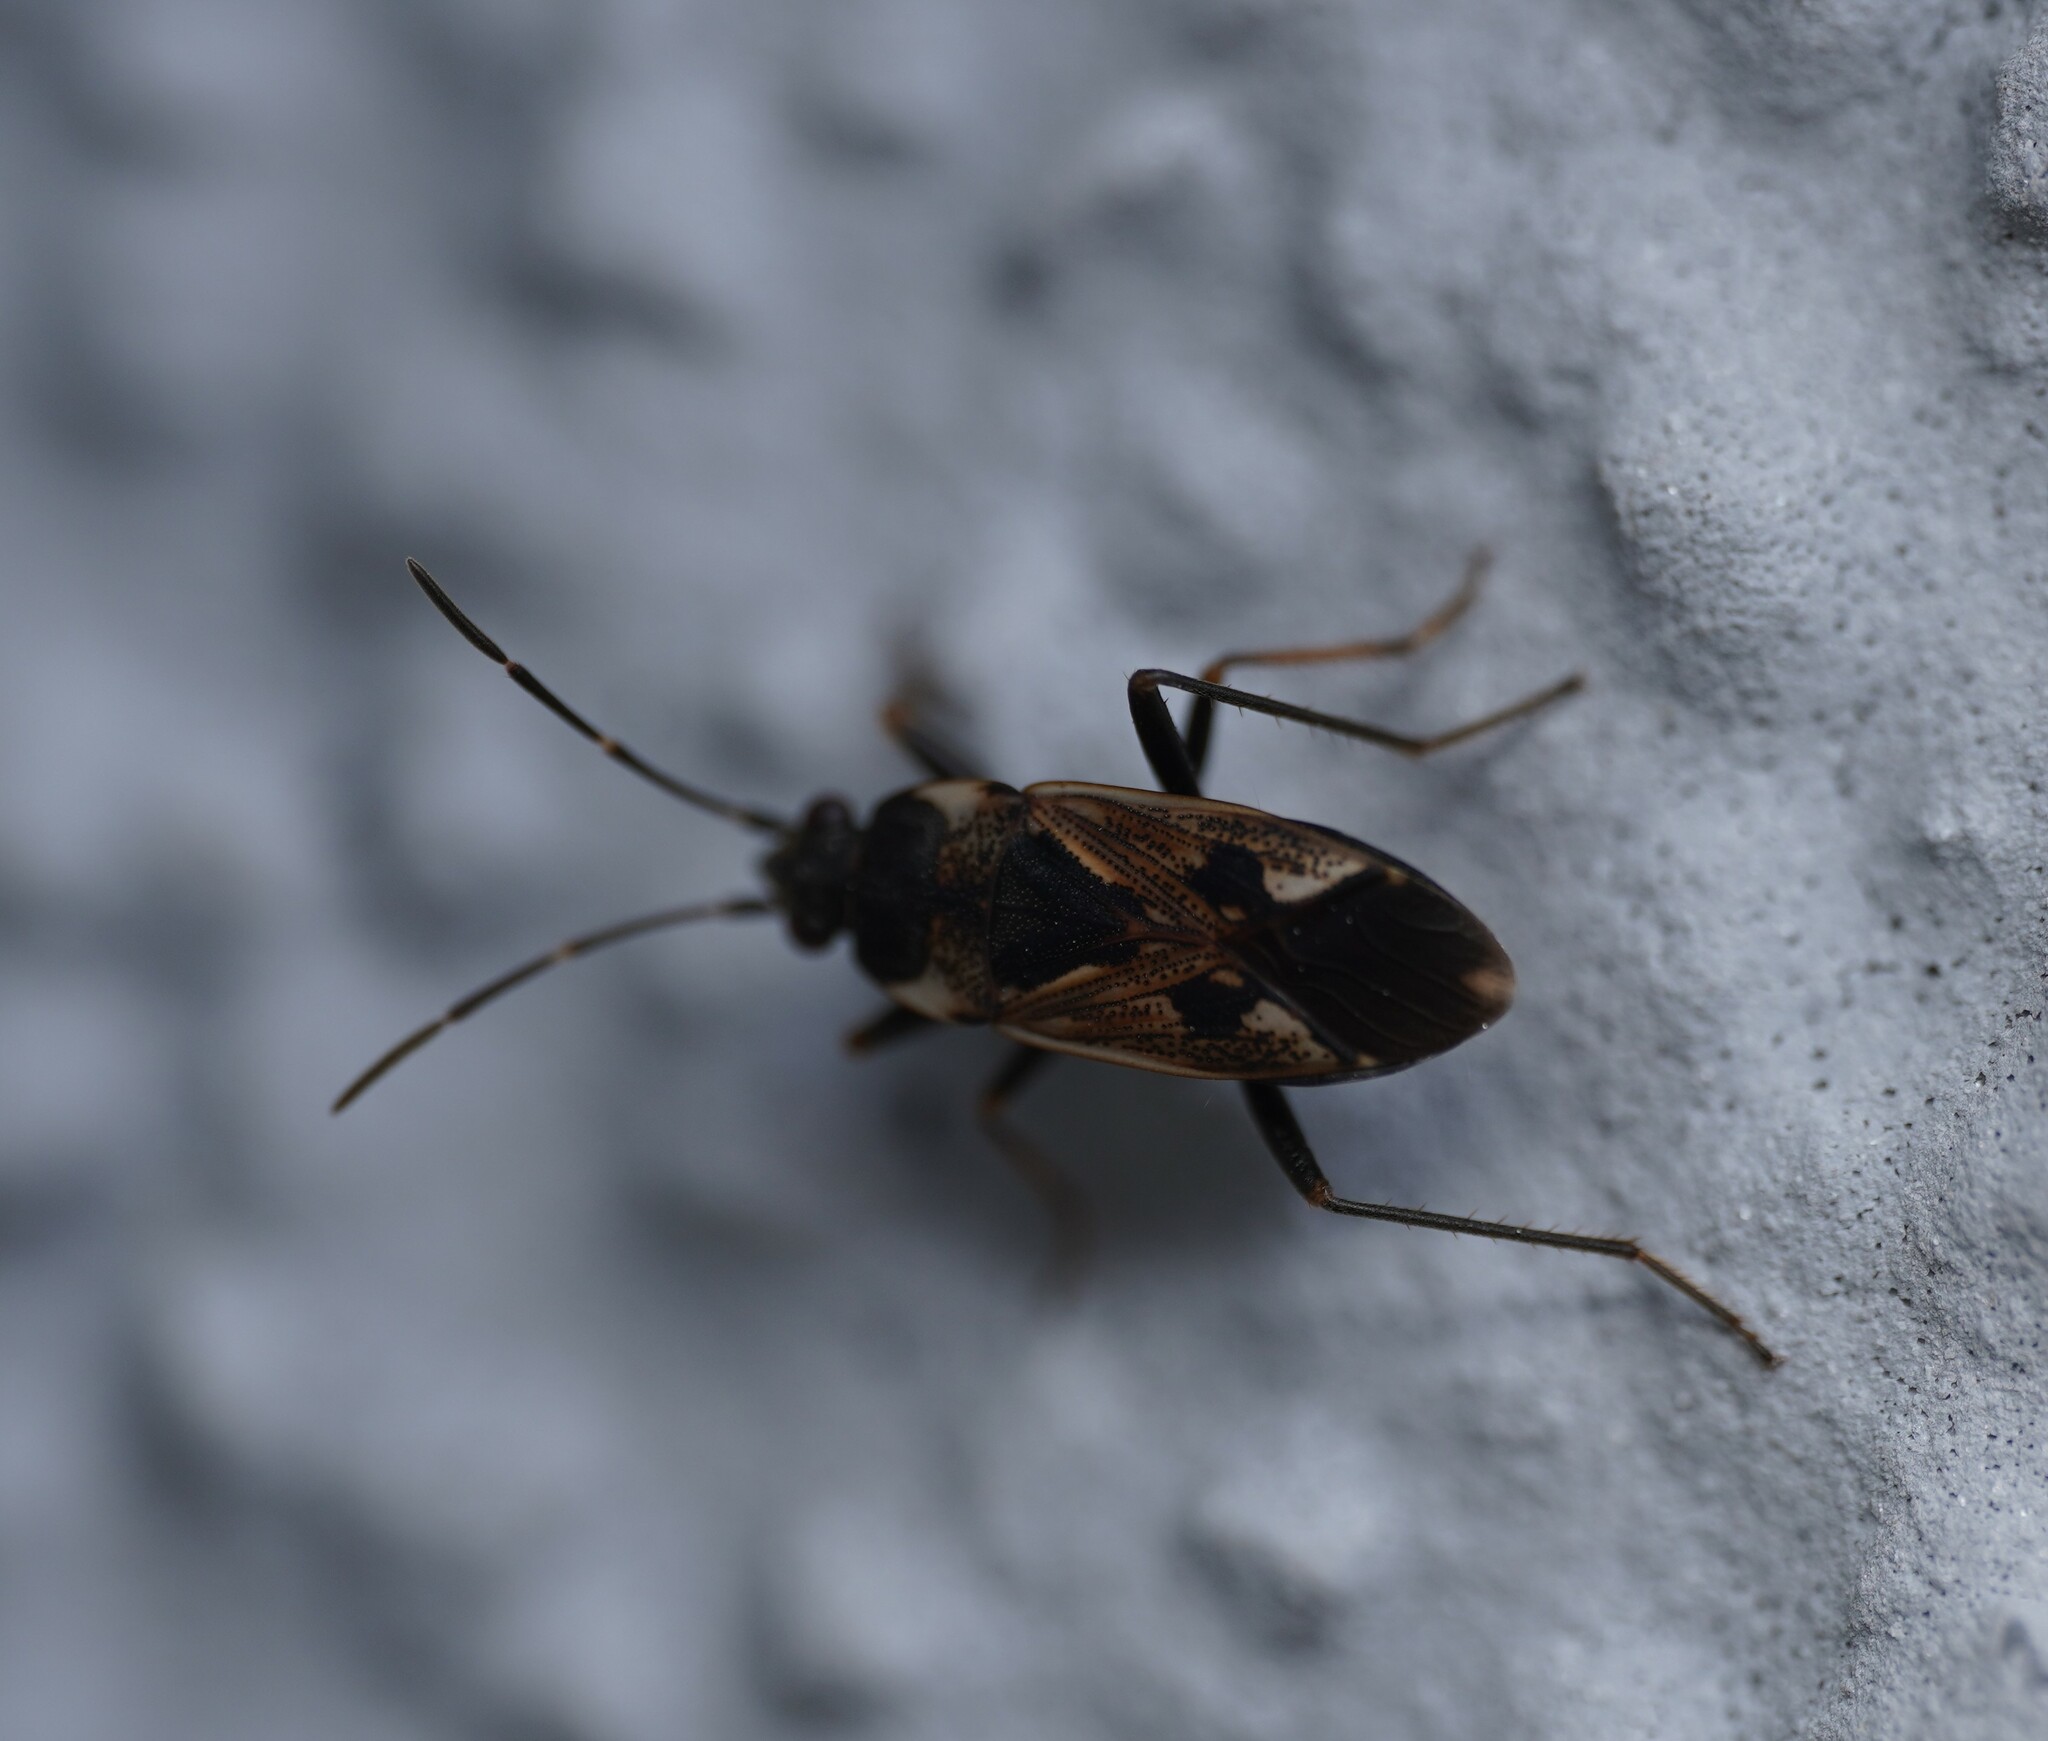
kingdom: Animalia
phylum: Arthropoda
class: Insecta
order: Hemiptera
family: Rhyparochromidae
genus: Rhyparochromus
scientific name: Rhyparochromus vulgaris
